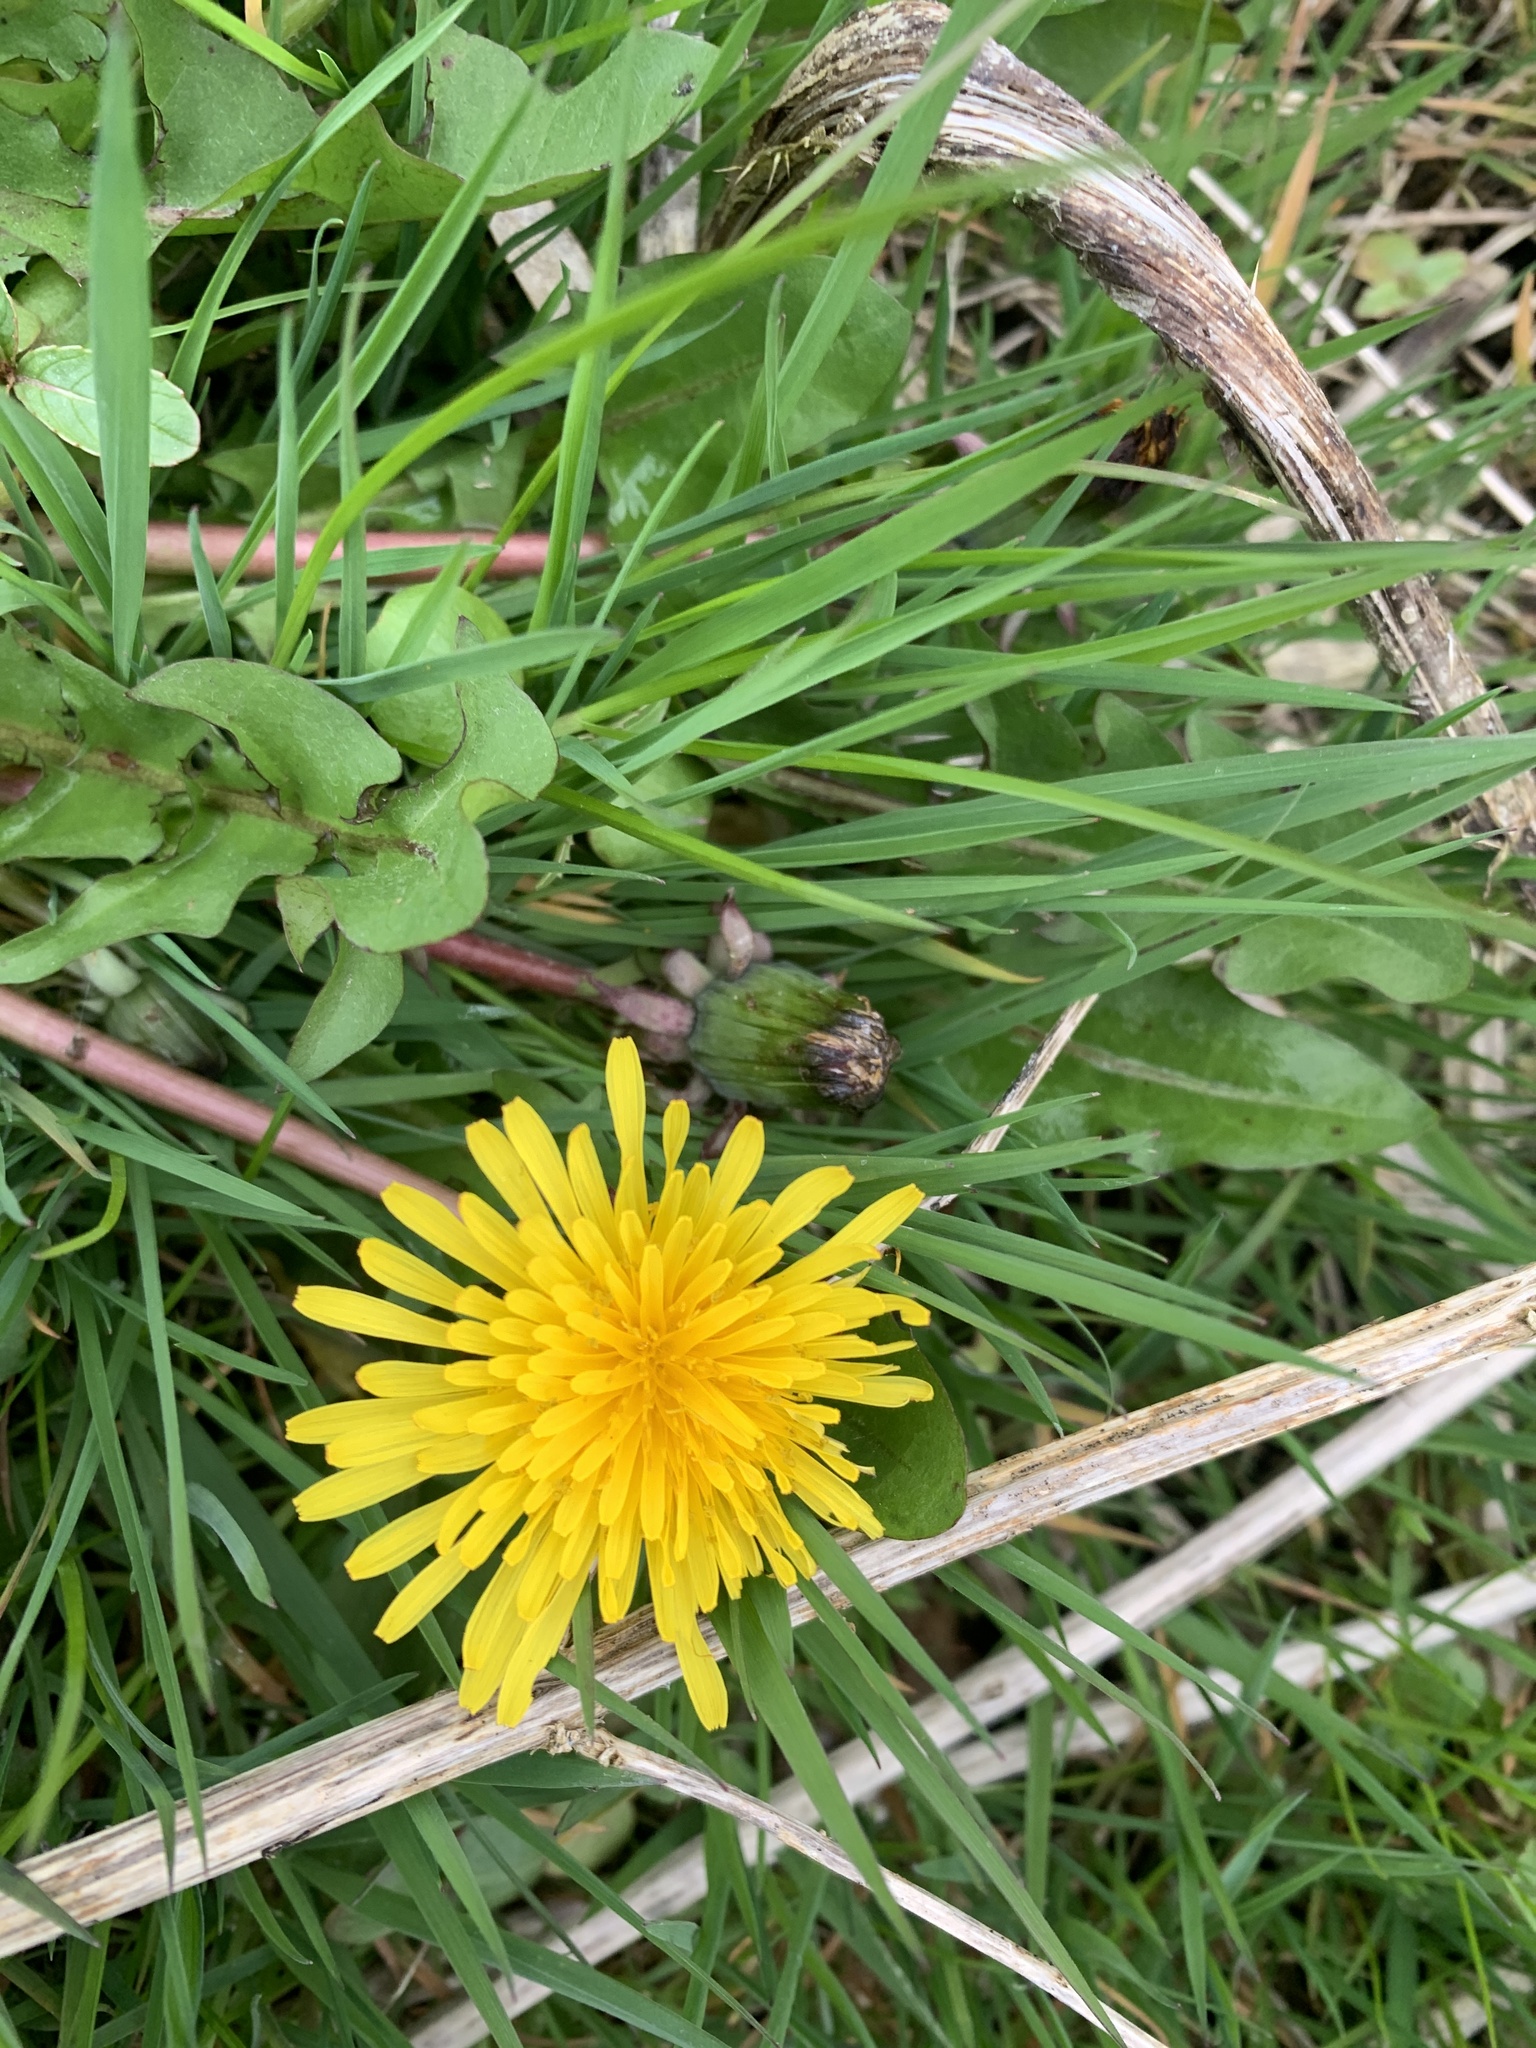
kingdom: Plantae
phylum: Tracheophyta
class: Magnoliopsida
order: Asterales
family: Asteraceae
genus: Taraxacum
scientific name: Taraxacum officinale
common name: Common dandelion
